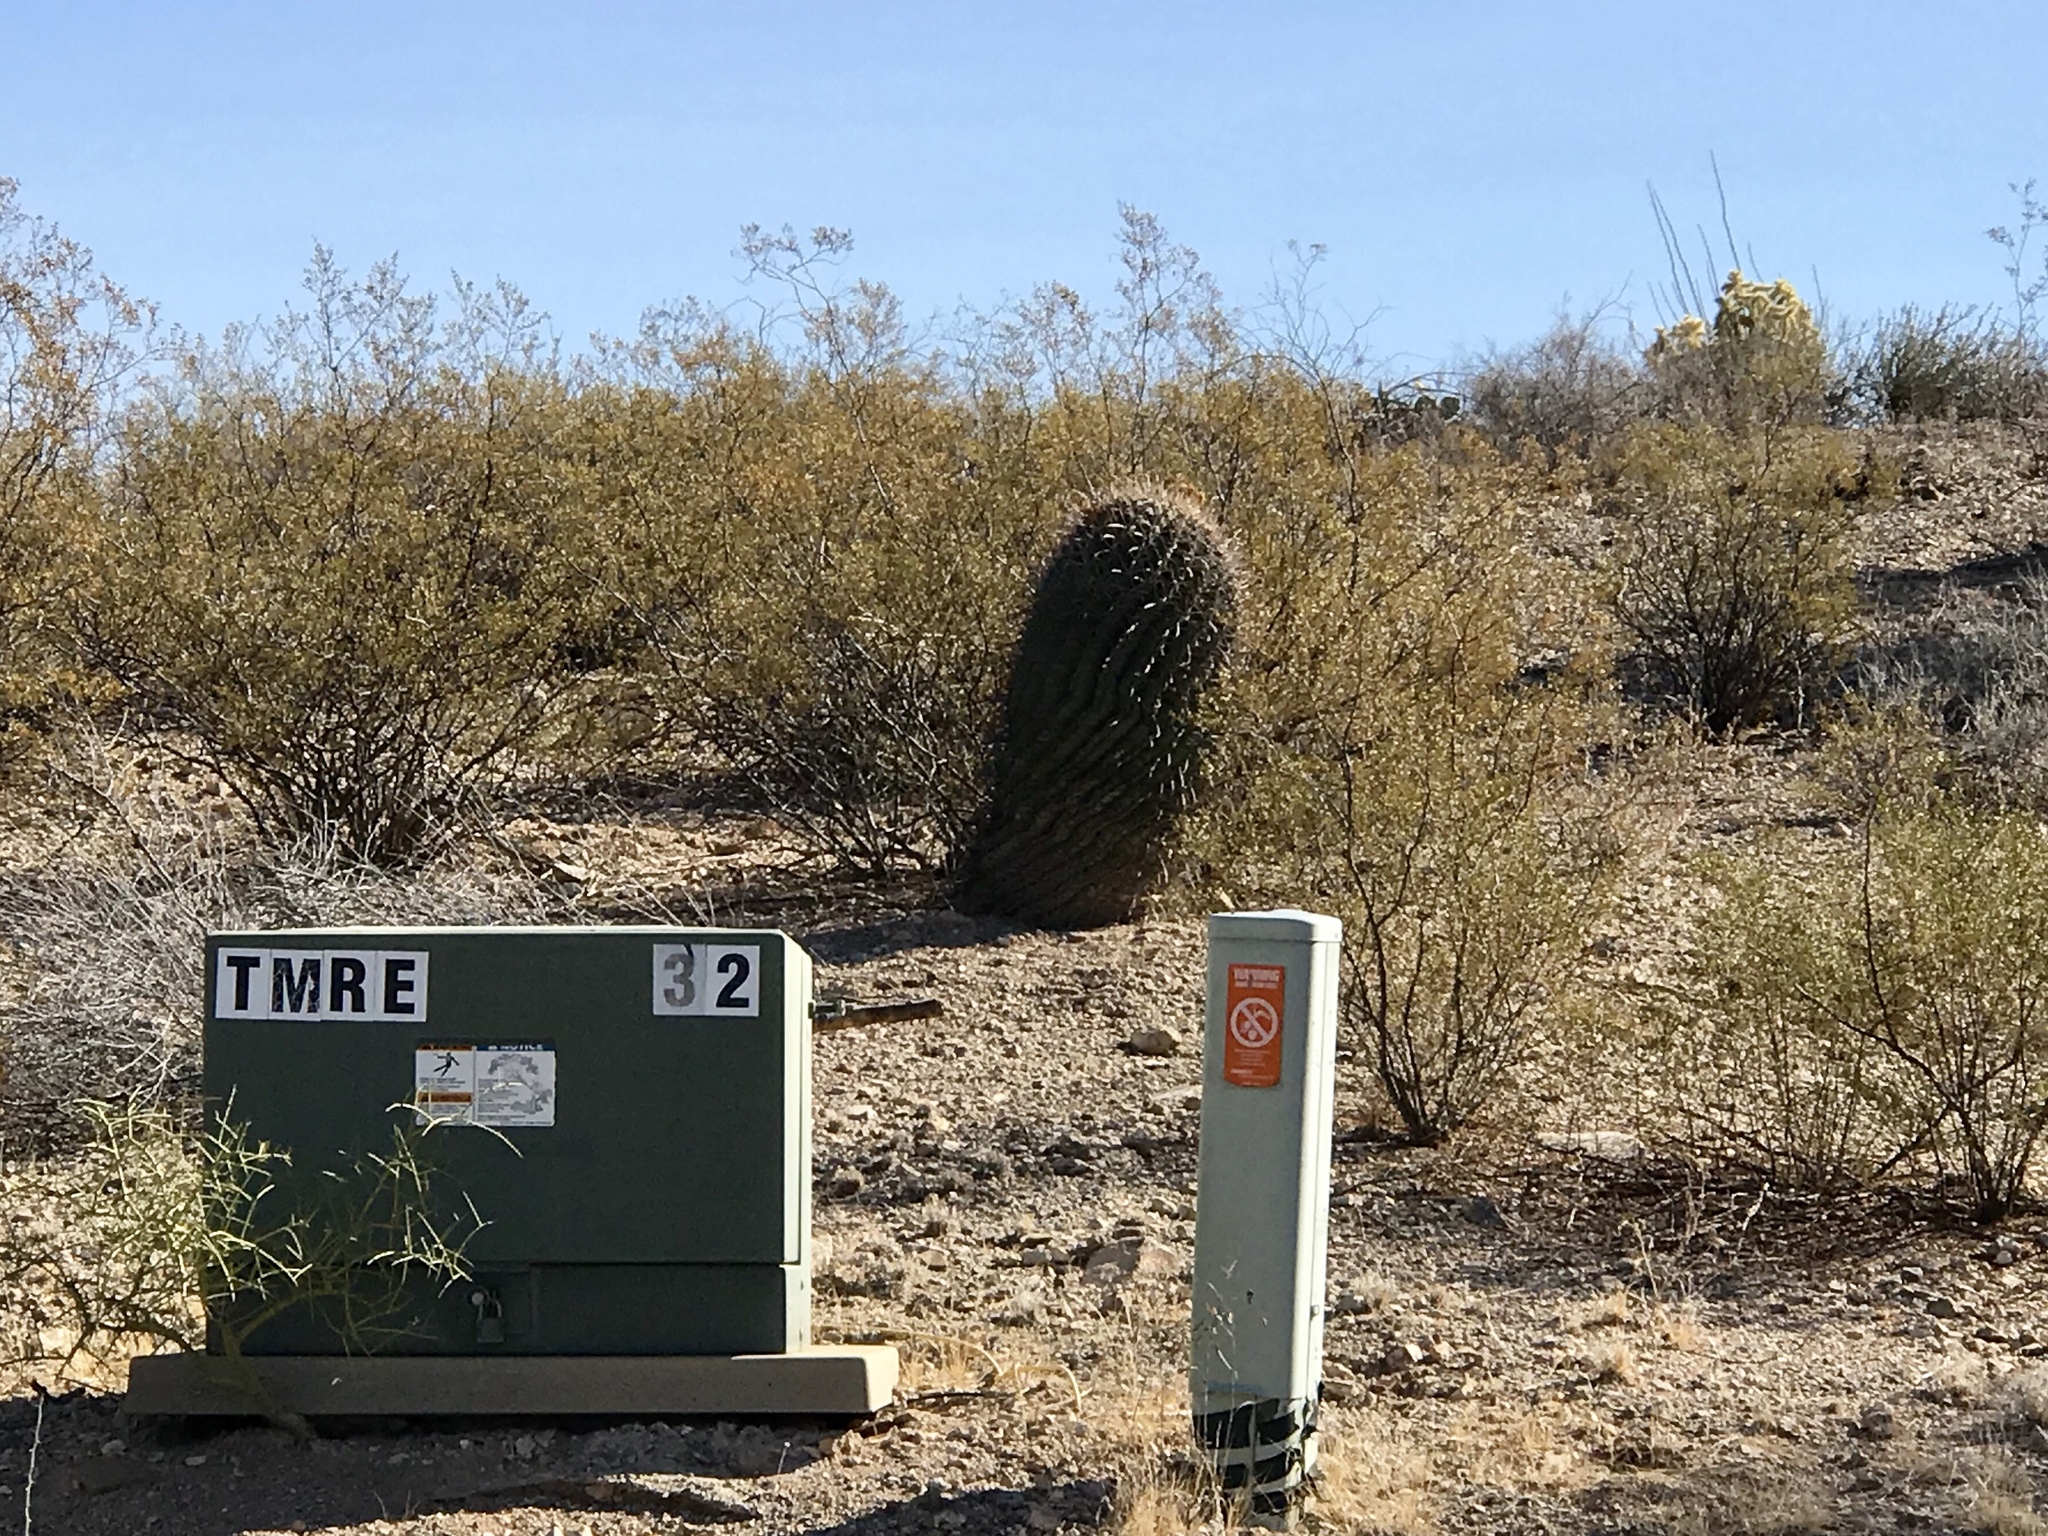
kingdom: Plantae
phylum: Tracheophyta
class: Magnoliopsida
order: Caryophyllales
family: Cactaceae
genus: Ferocactus
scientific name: Ferocactus wislizeni
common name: Candy barrel cactus
